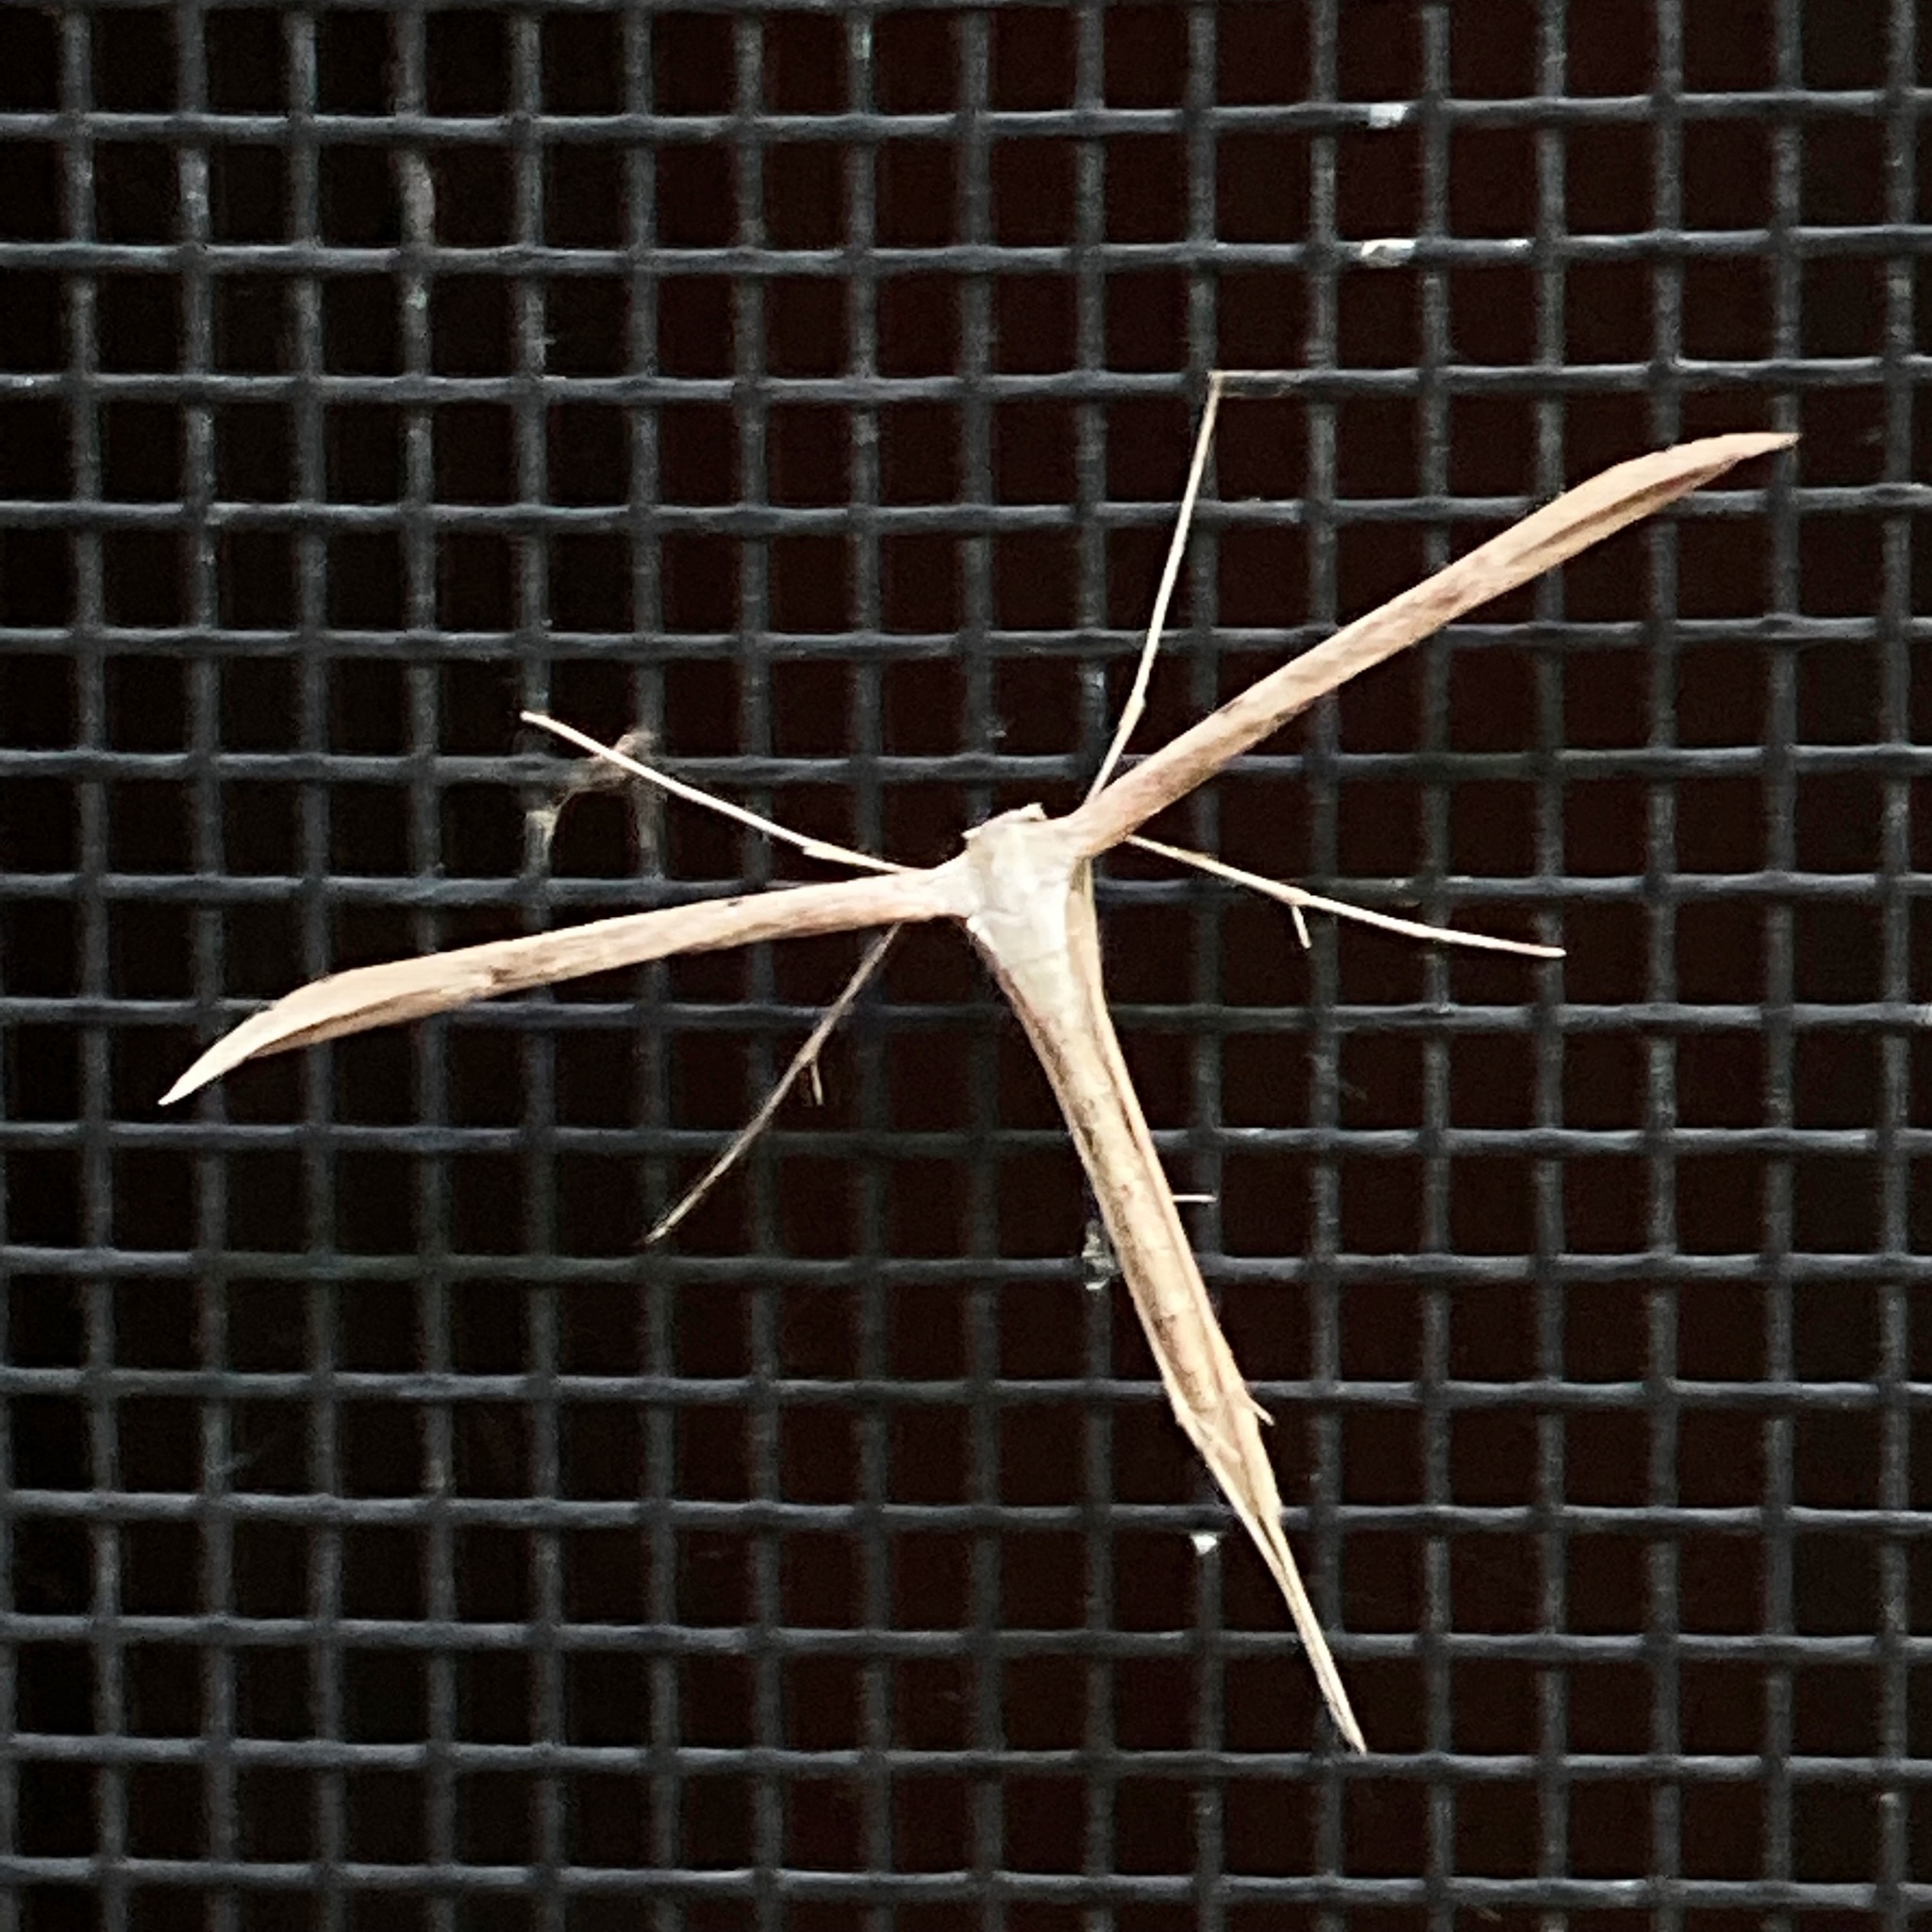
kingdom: Animalia
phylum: Arthropoda
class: Insecta
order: Lepidoptera
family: Pterophoridae
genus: Emmelina
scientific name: Emmelina monodactyla
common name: Common plume
